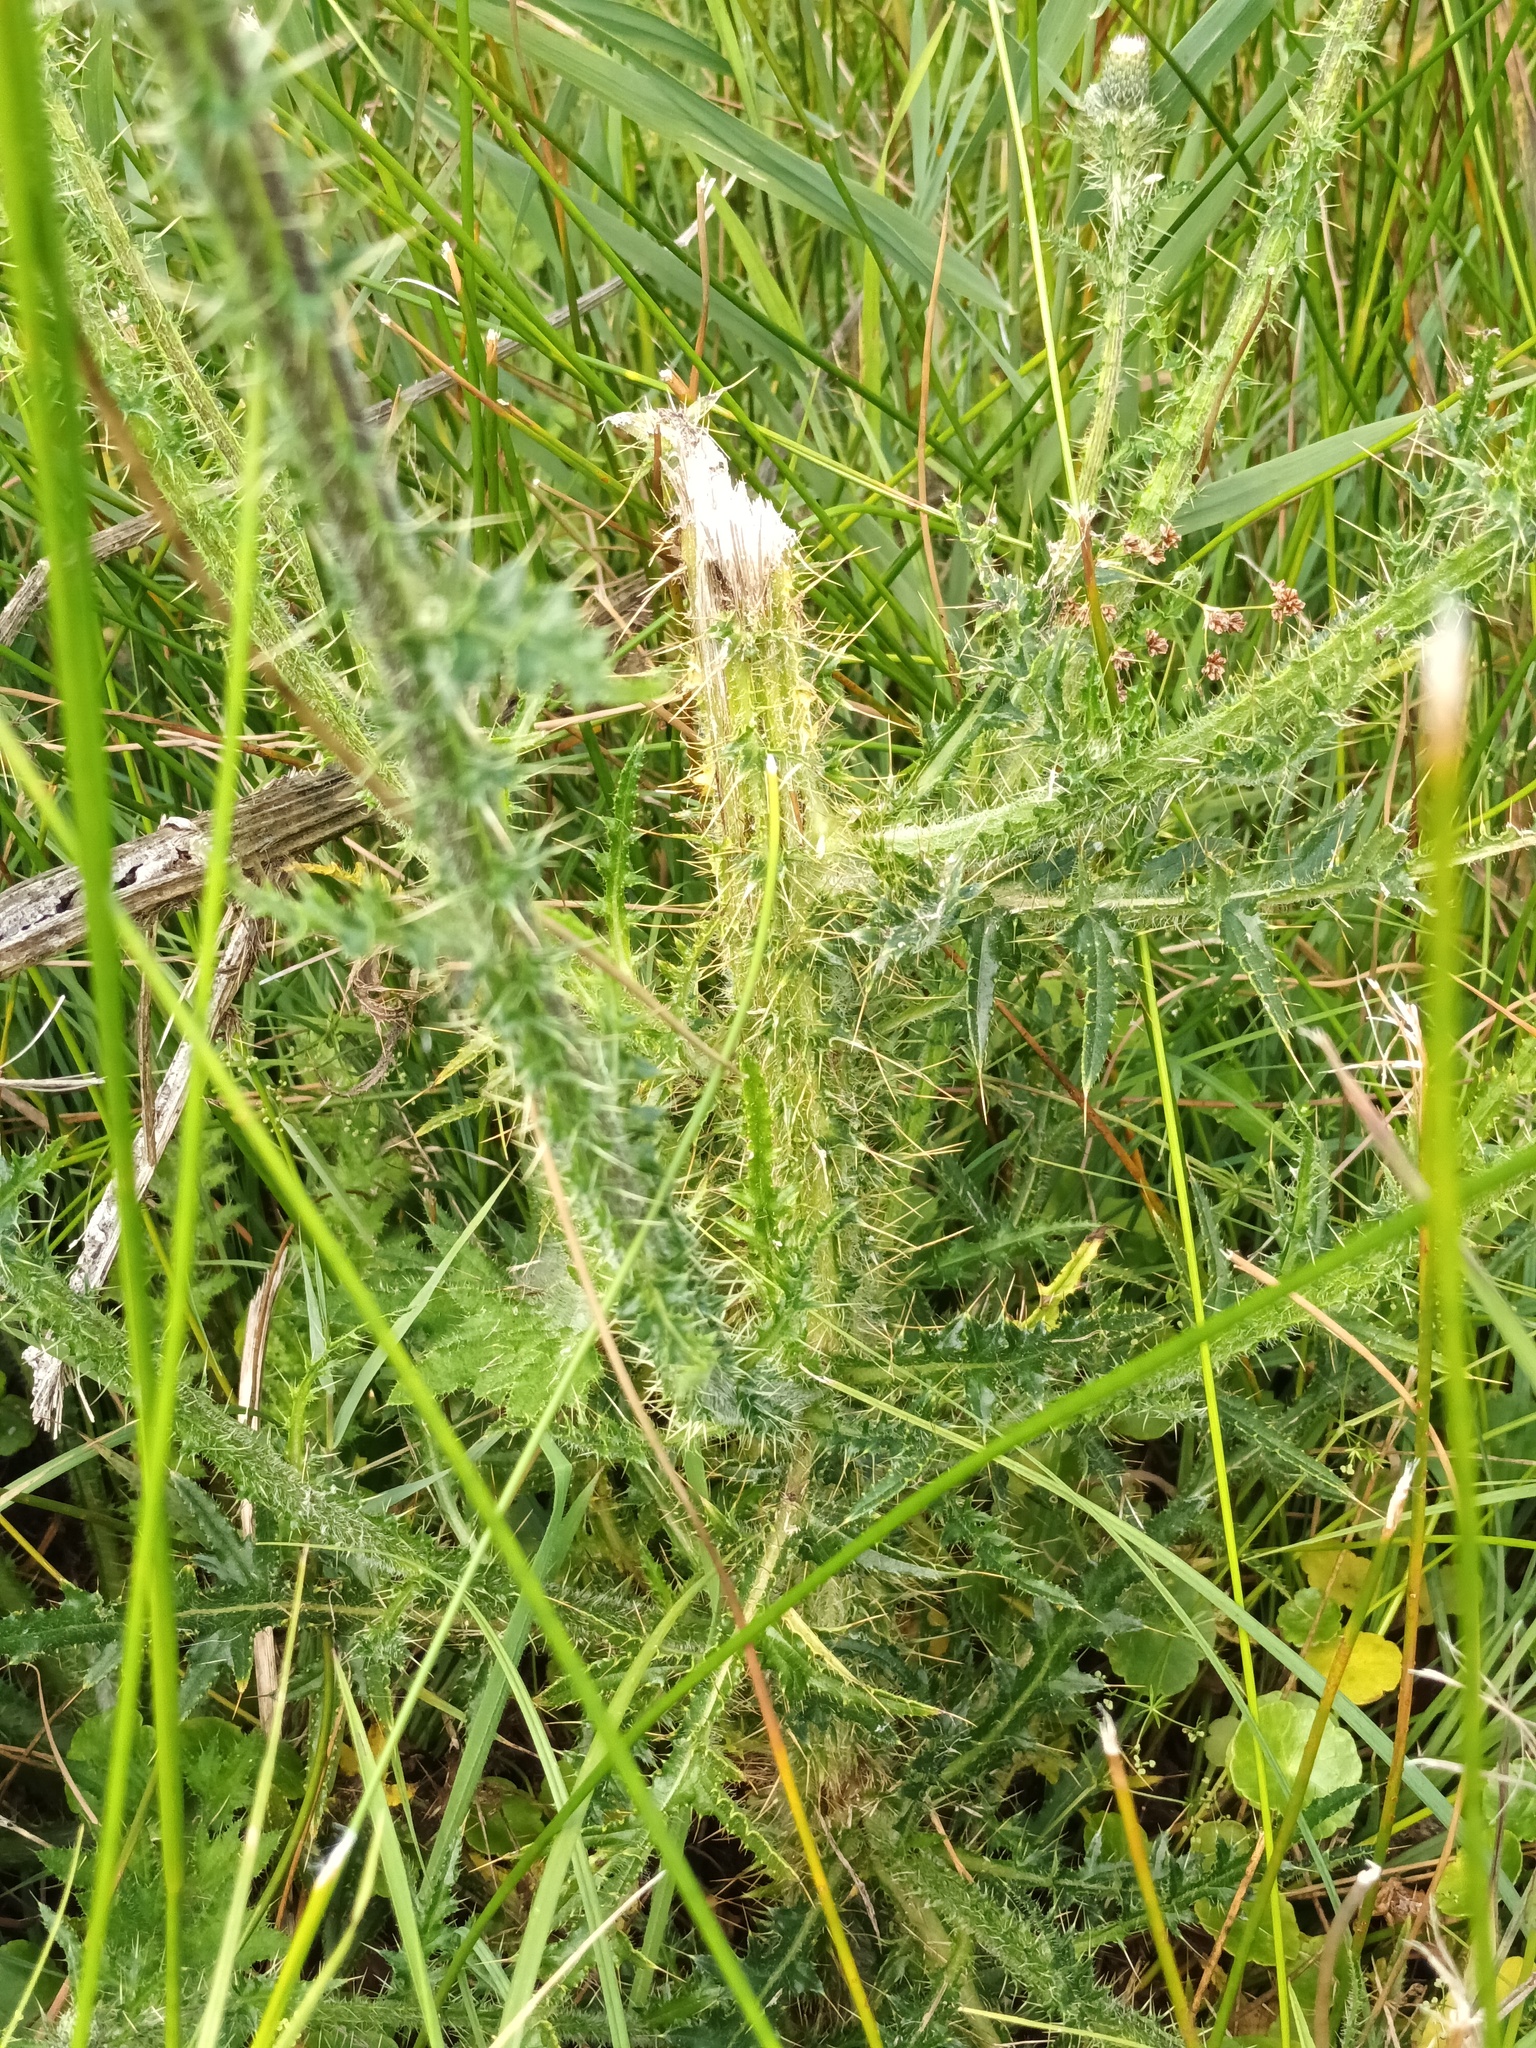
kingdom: Plantae
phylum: Tracheophyta
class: Magnoliopsida
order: Asterales
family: Asteraceae
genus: Cirsium
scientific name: Cirsium palustre
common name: Marsh thistle
